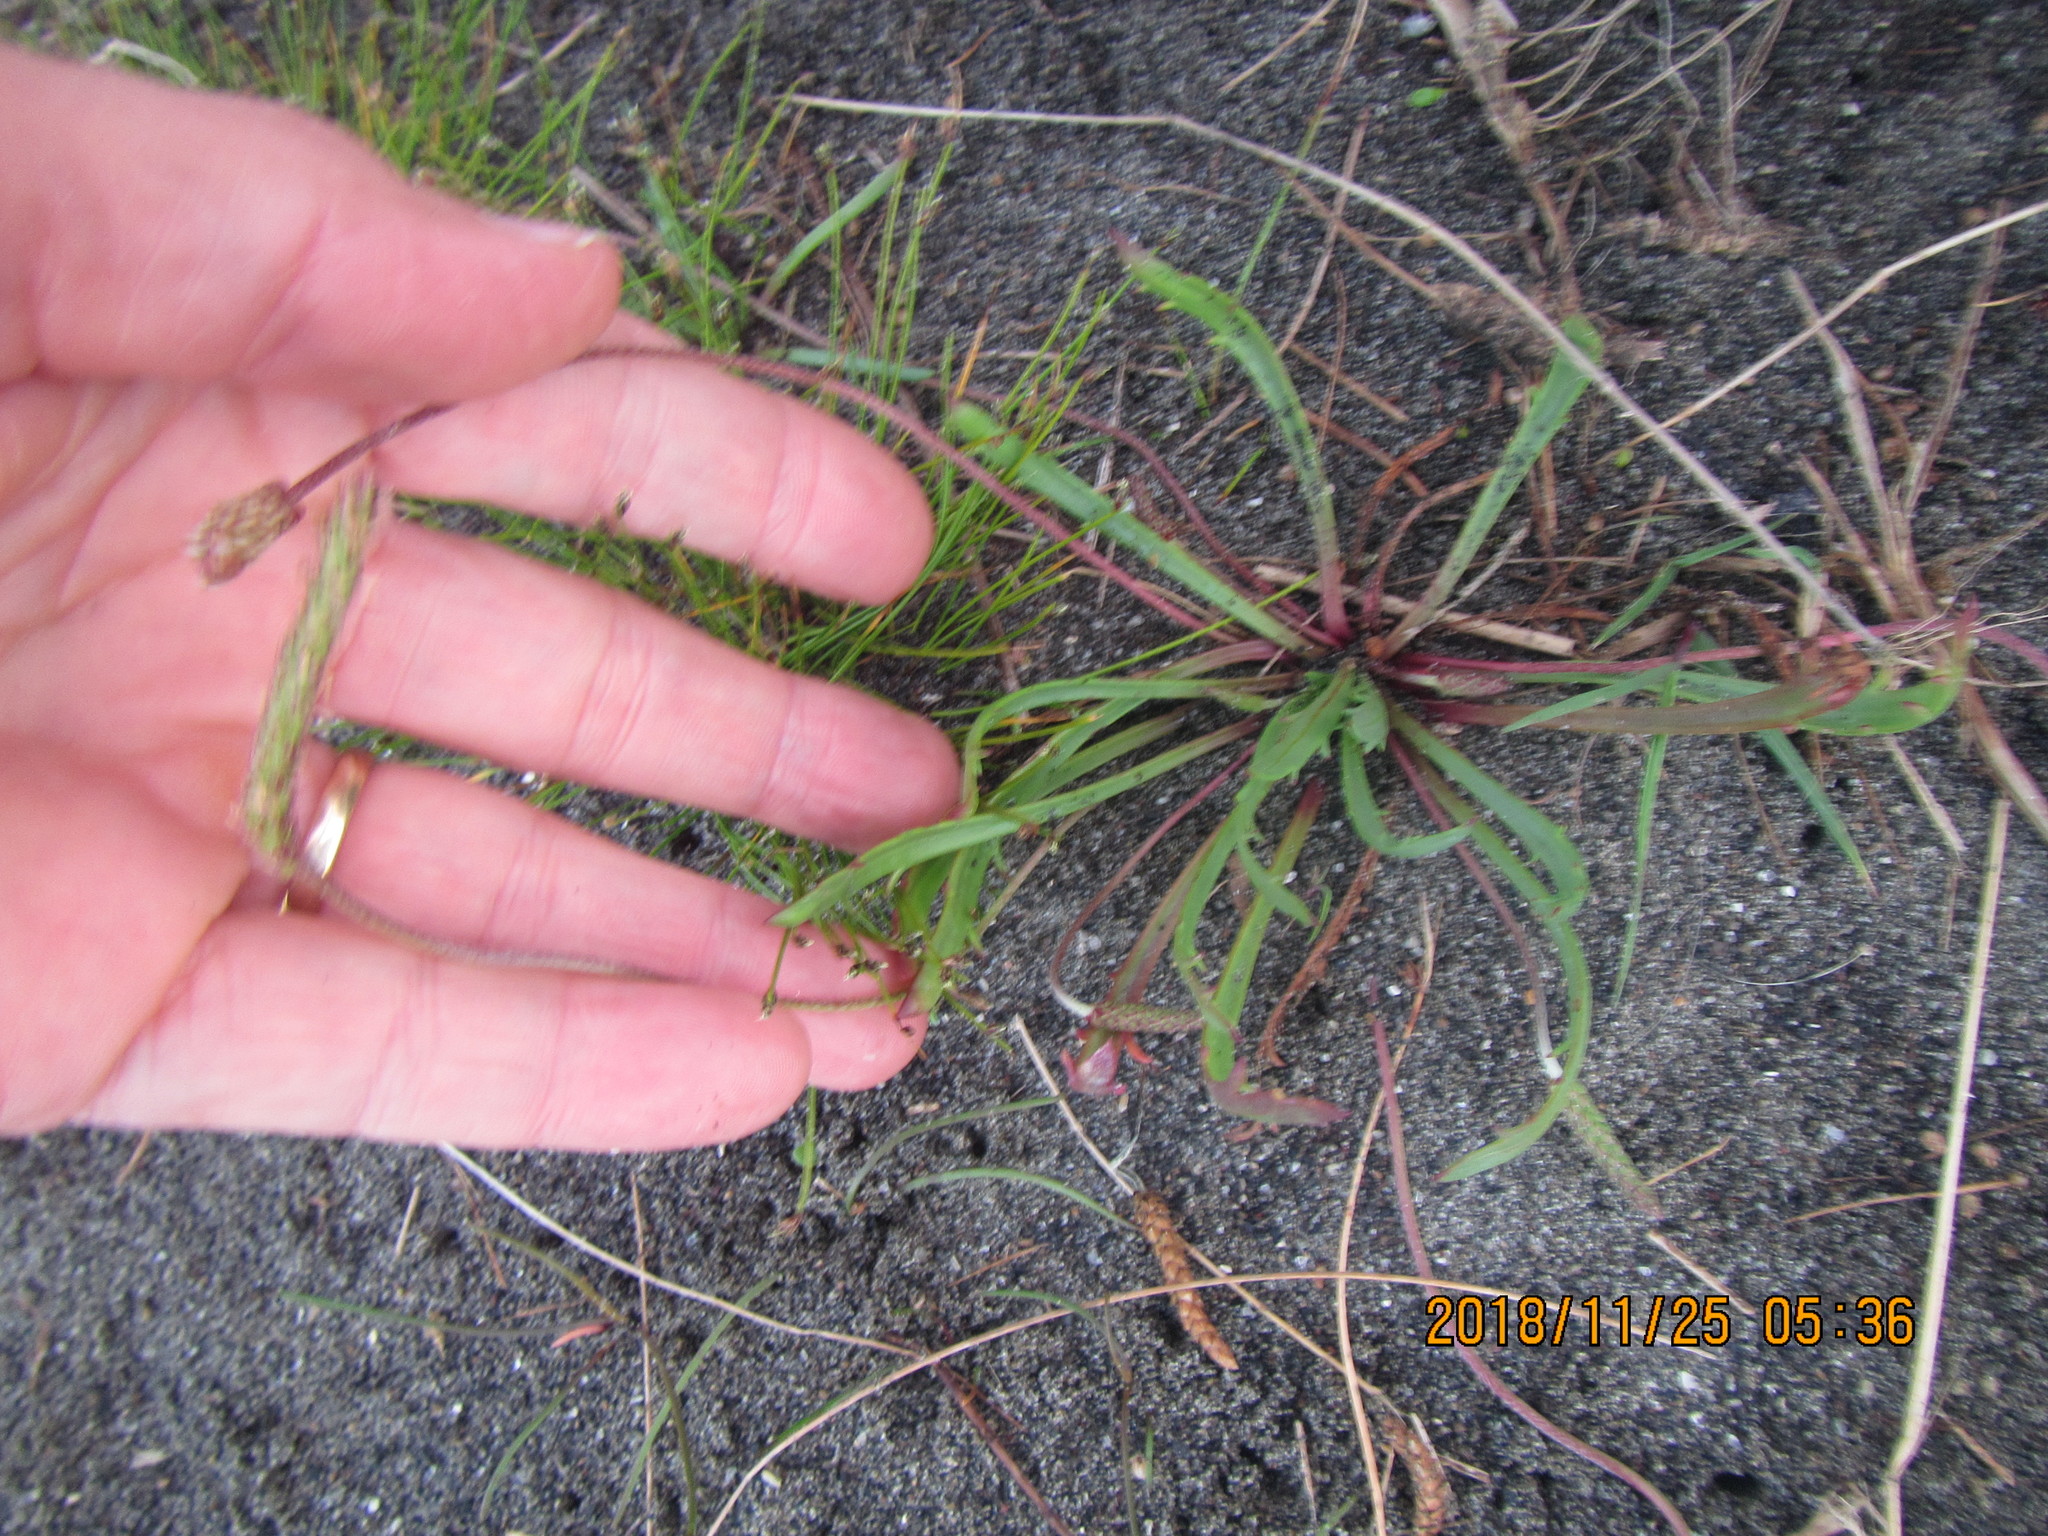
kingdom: Plantae
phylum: Tracheophyta
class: Magnoliopsida
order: Lamiales
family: Plantaginaceae
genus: Plantago
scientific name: Plantago coronopus
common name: Buck's-horn plantain
